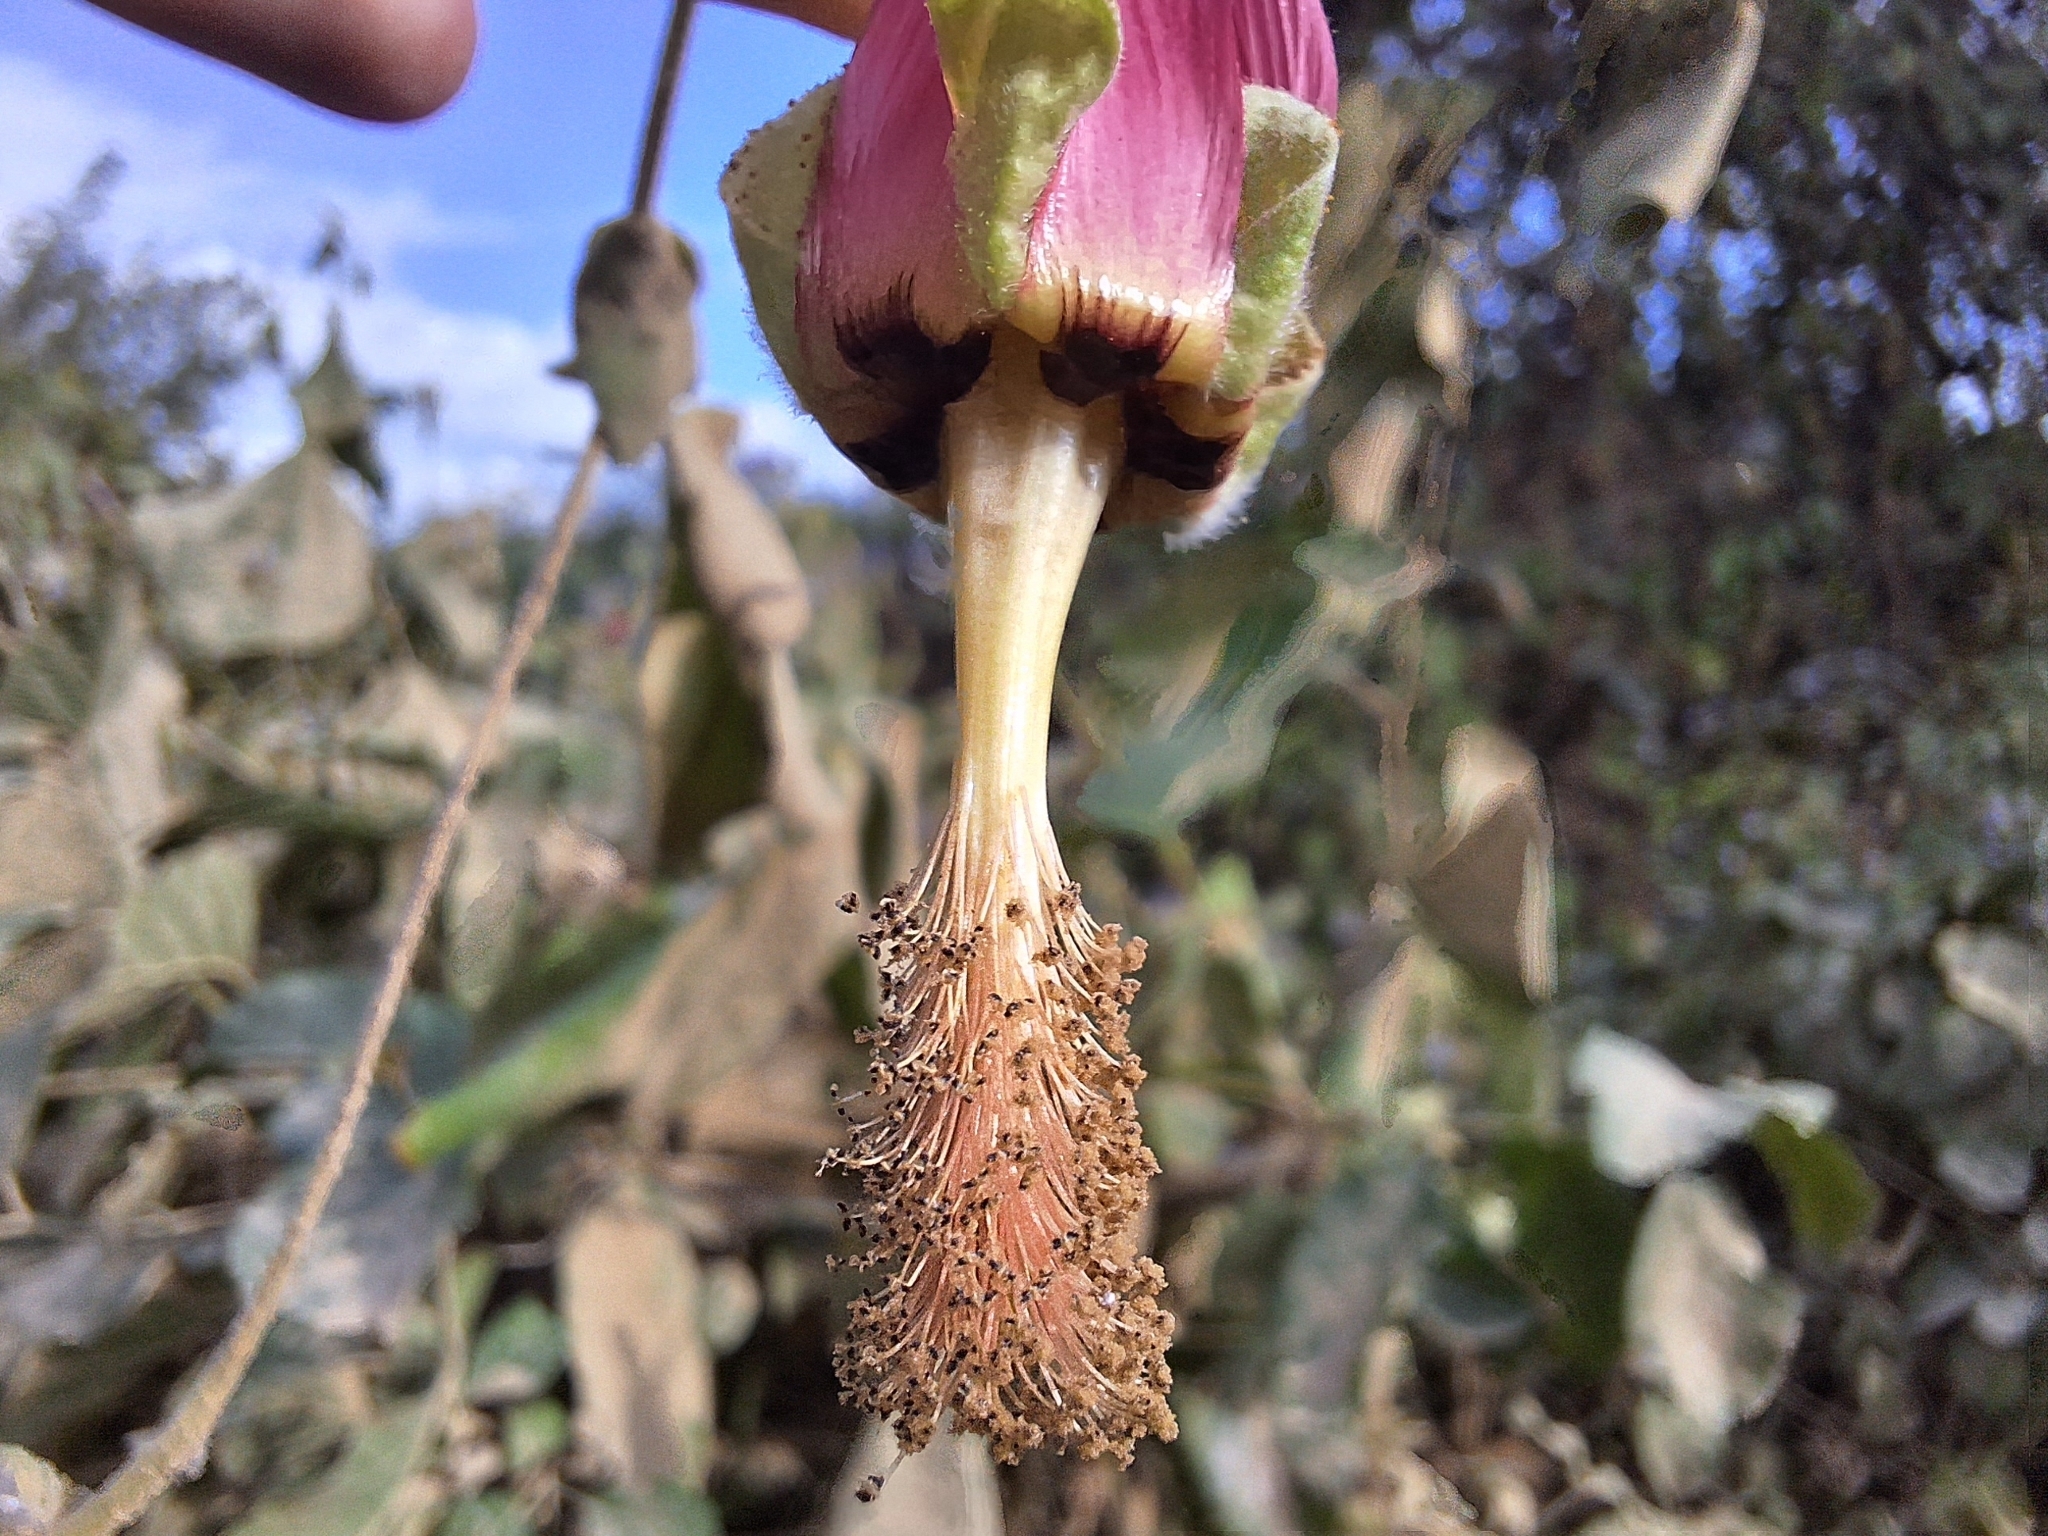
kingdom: Plantae
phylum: Tracheophyta
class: Magnoliopsida
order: Malvales
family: Malvaceae
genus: Abutilon
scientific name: Abutilon reflexum
